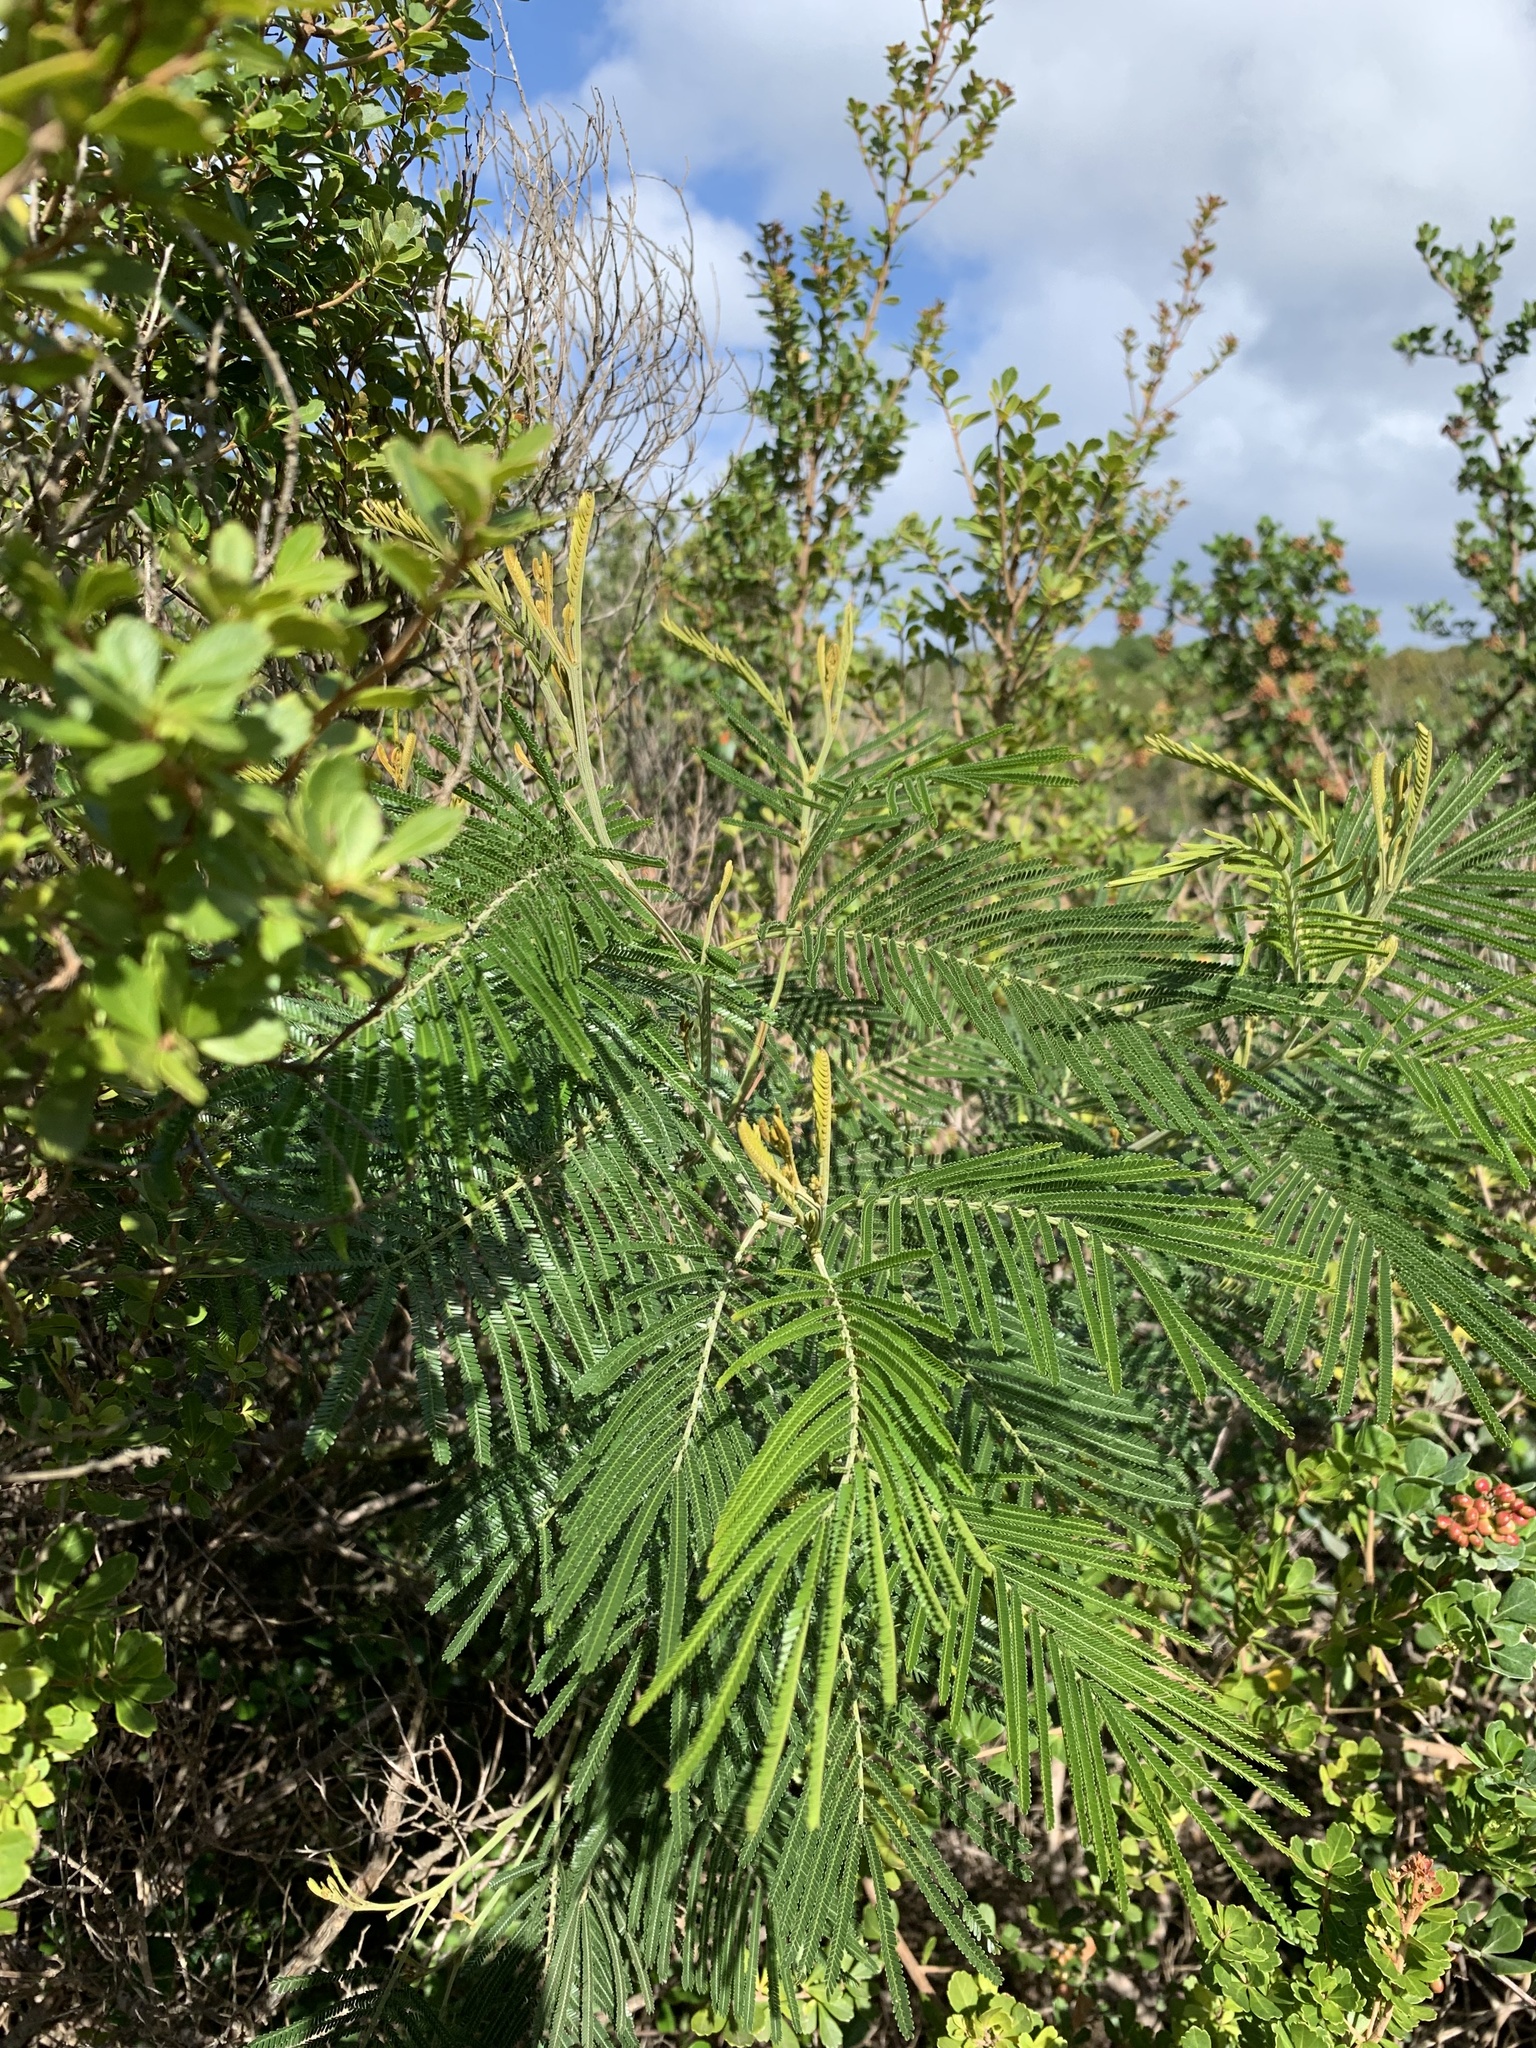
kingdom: Plantae
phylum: Tracheophyta
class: Magnoliopsida
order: Fabales
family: Fabaceae
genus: Acacia
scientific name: Acacia mearnsii
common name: Black wattle
